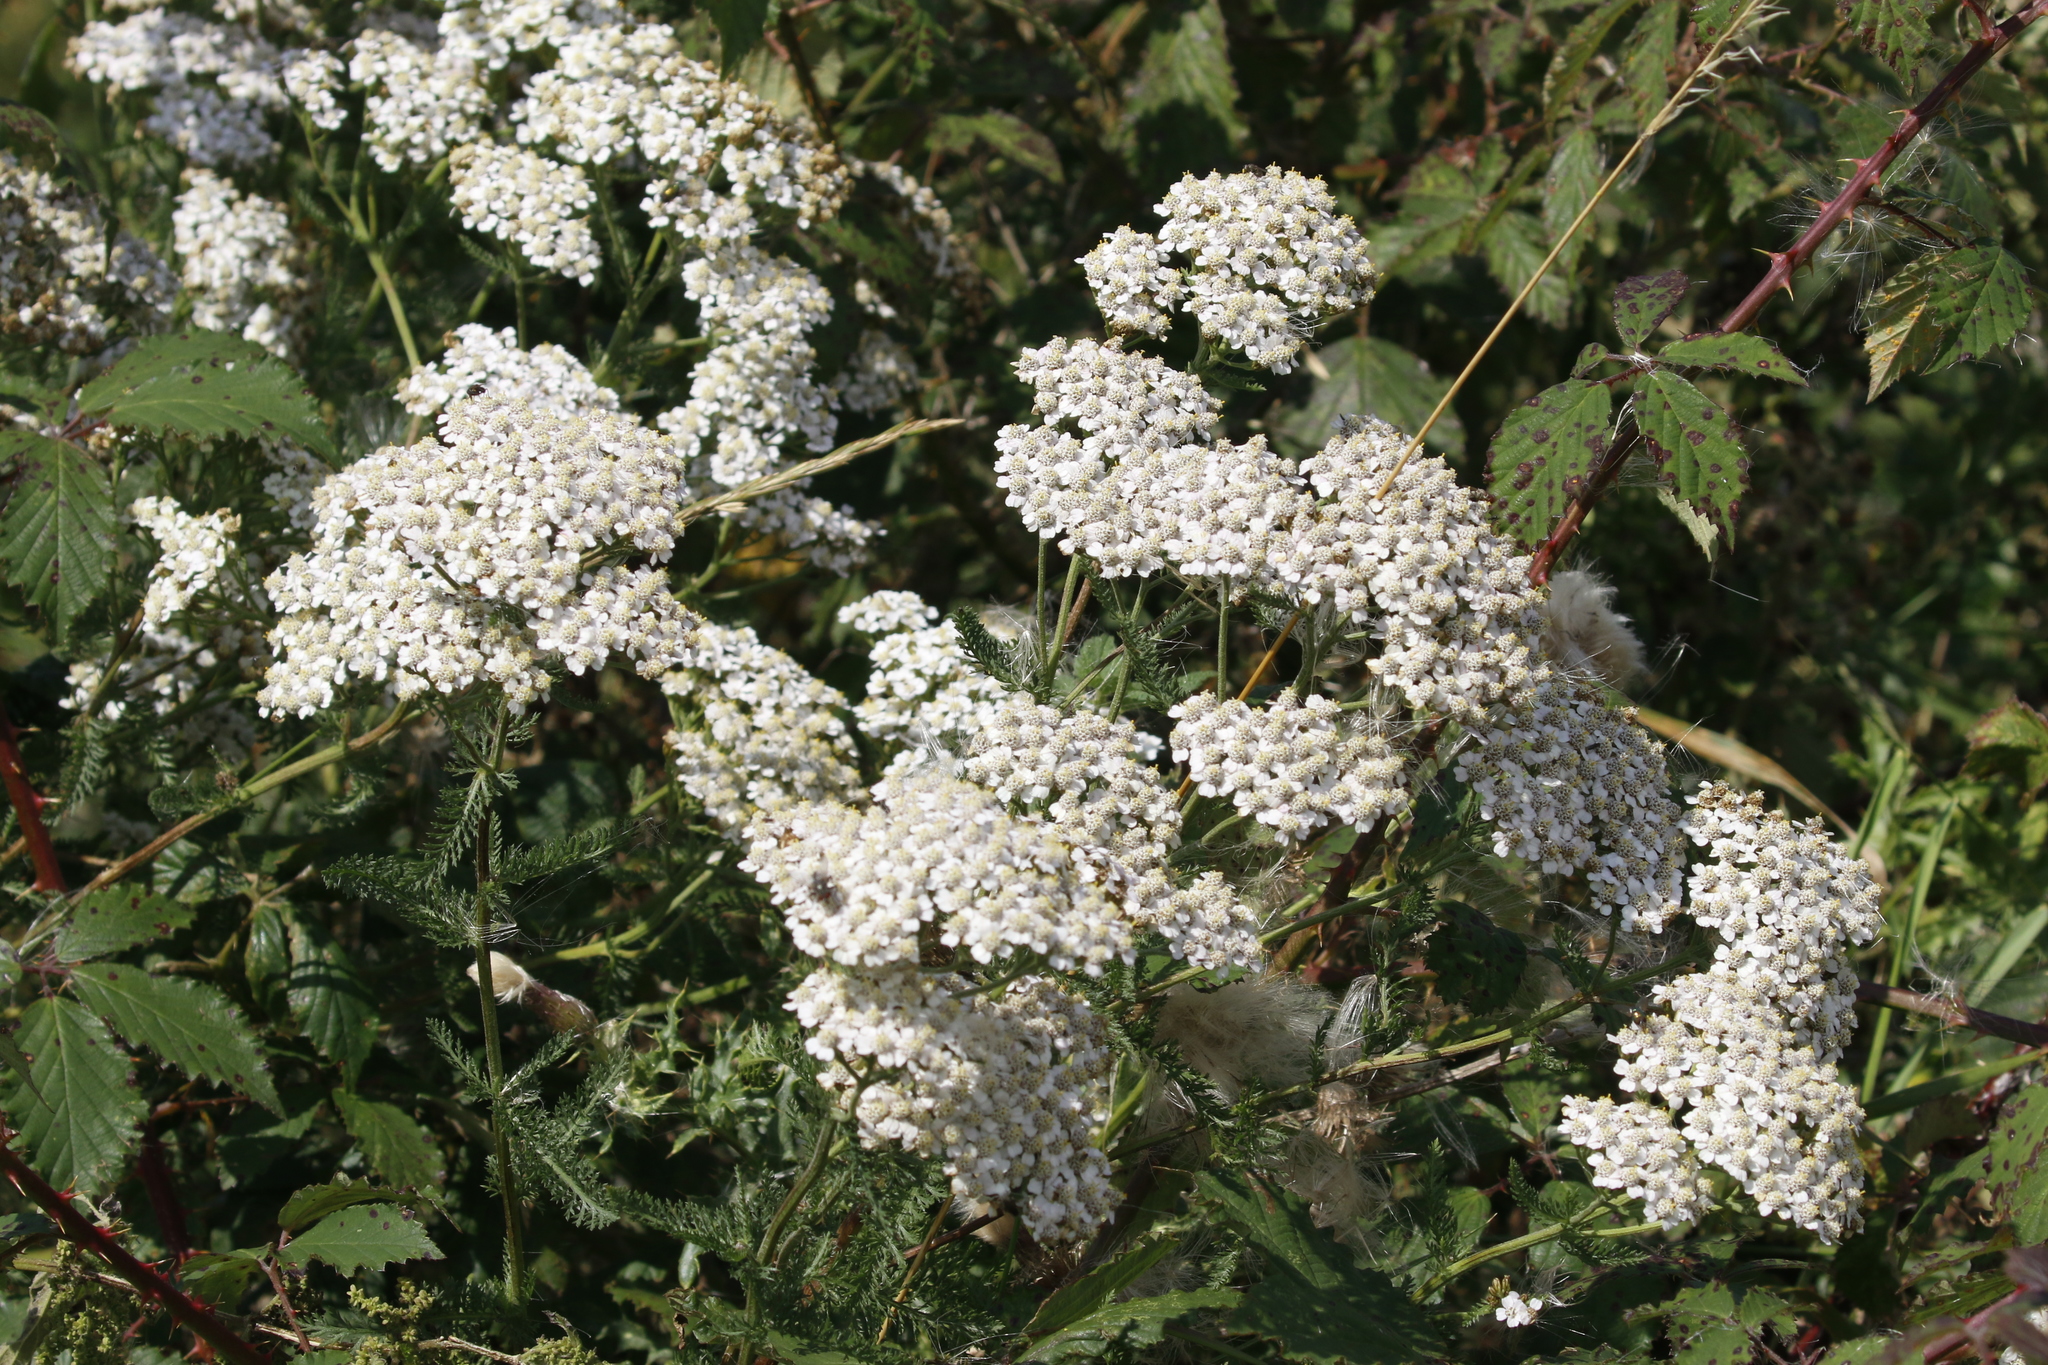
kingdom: Plantae
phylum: Tracheophyta
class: Magnoliopsida
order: Asterales
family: Asteraceae
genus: Achillea
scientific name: Achillea millefolium
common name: Yarrow
